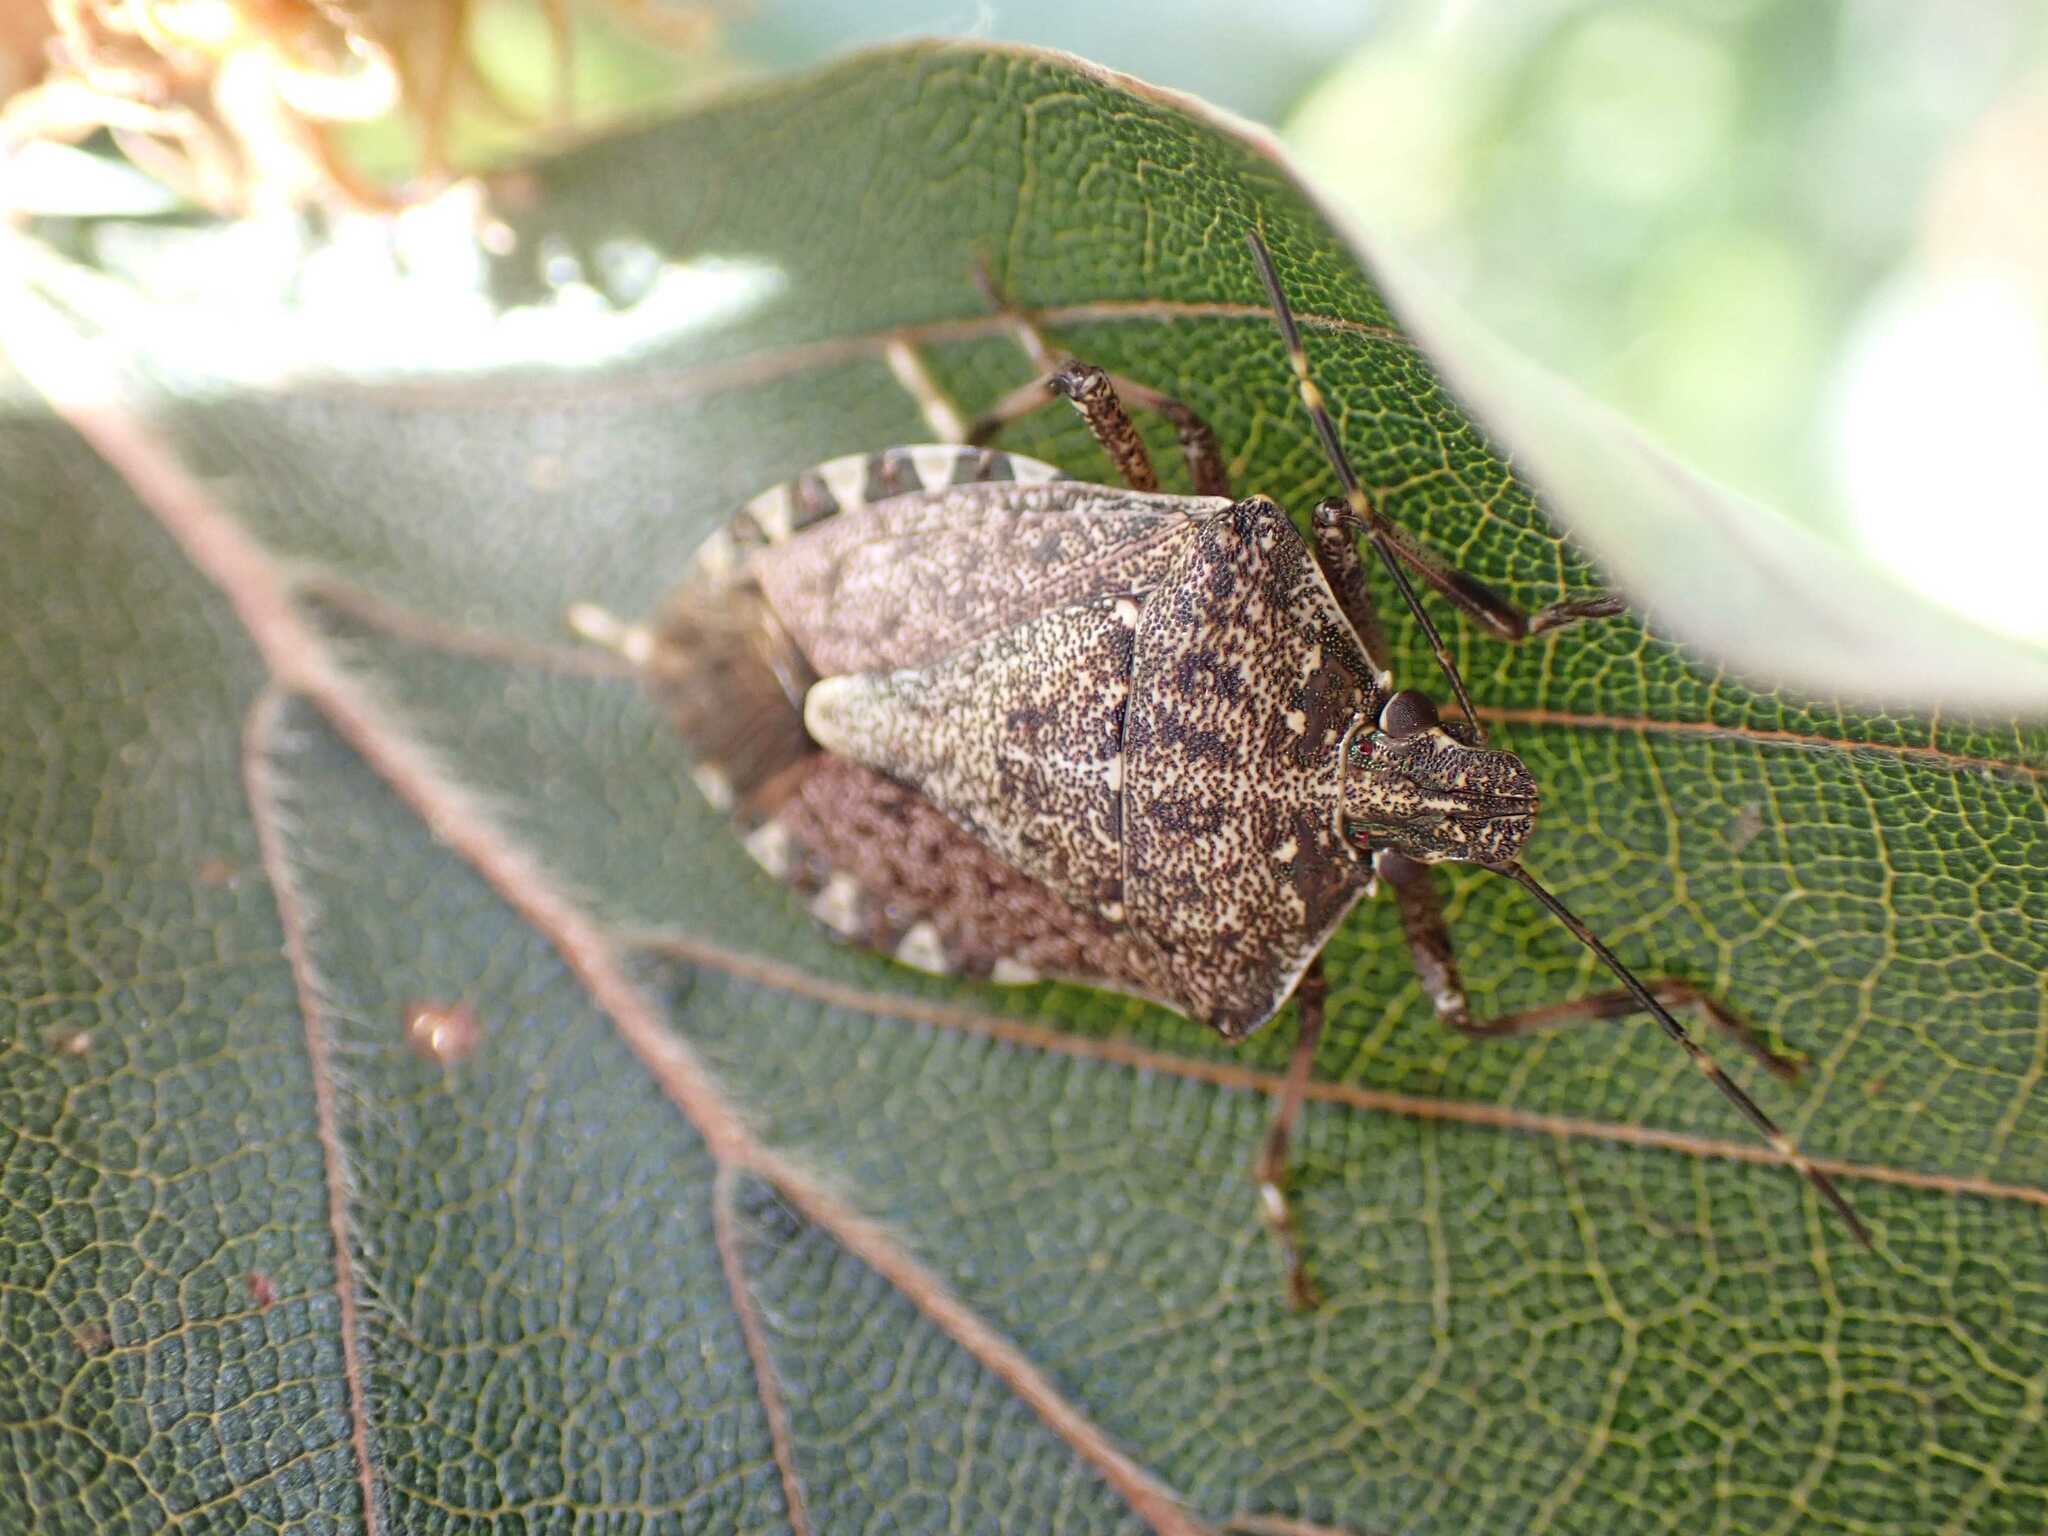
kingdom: Animalia
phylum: Arthropoda
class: Insecta
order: Hemiptera
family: Pentatomidae
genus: Halyomorpha
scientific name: Halyomorpha halys
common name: Brown marmorated stink bug
